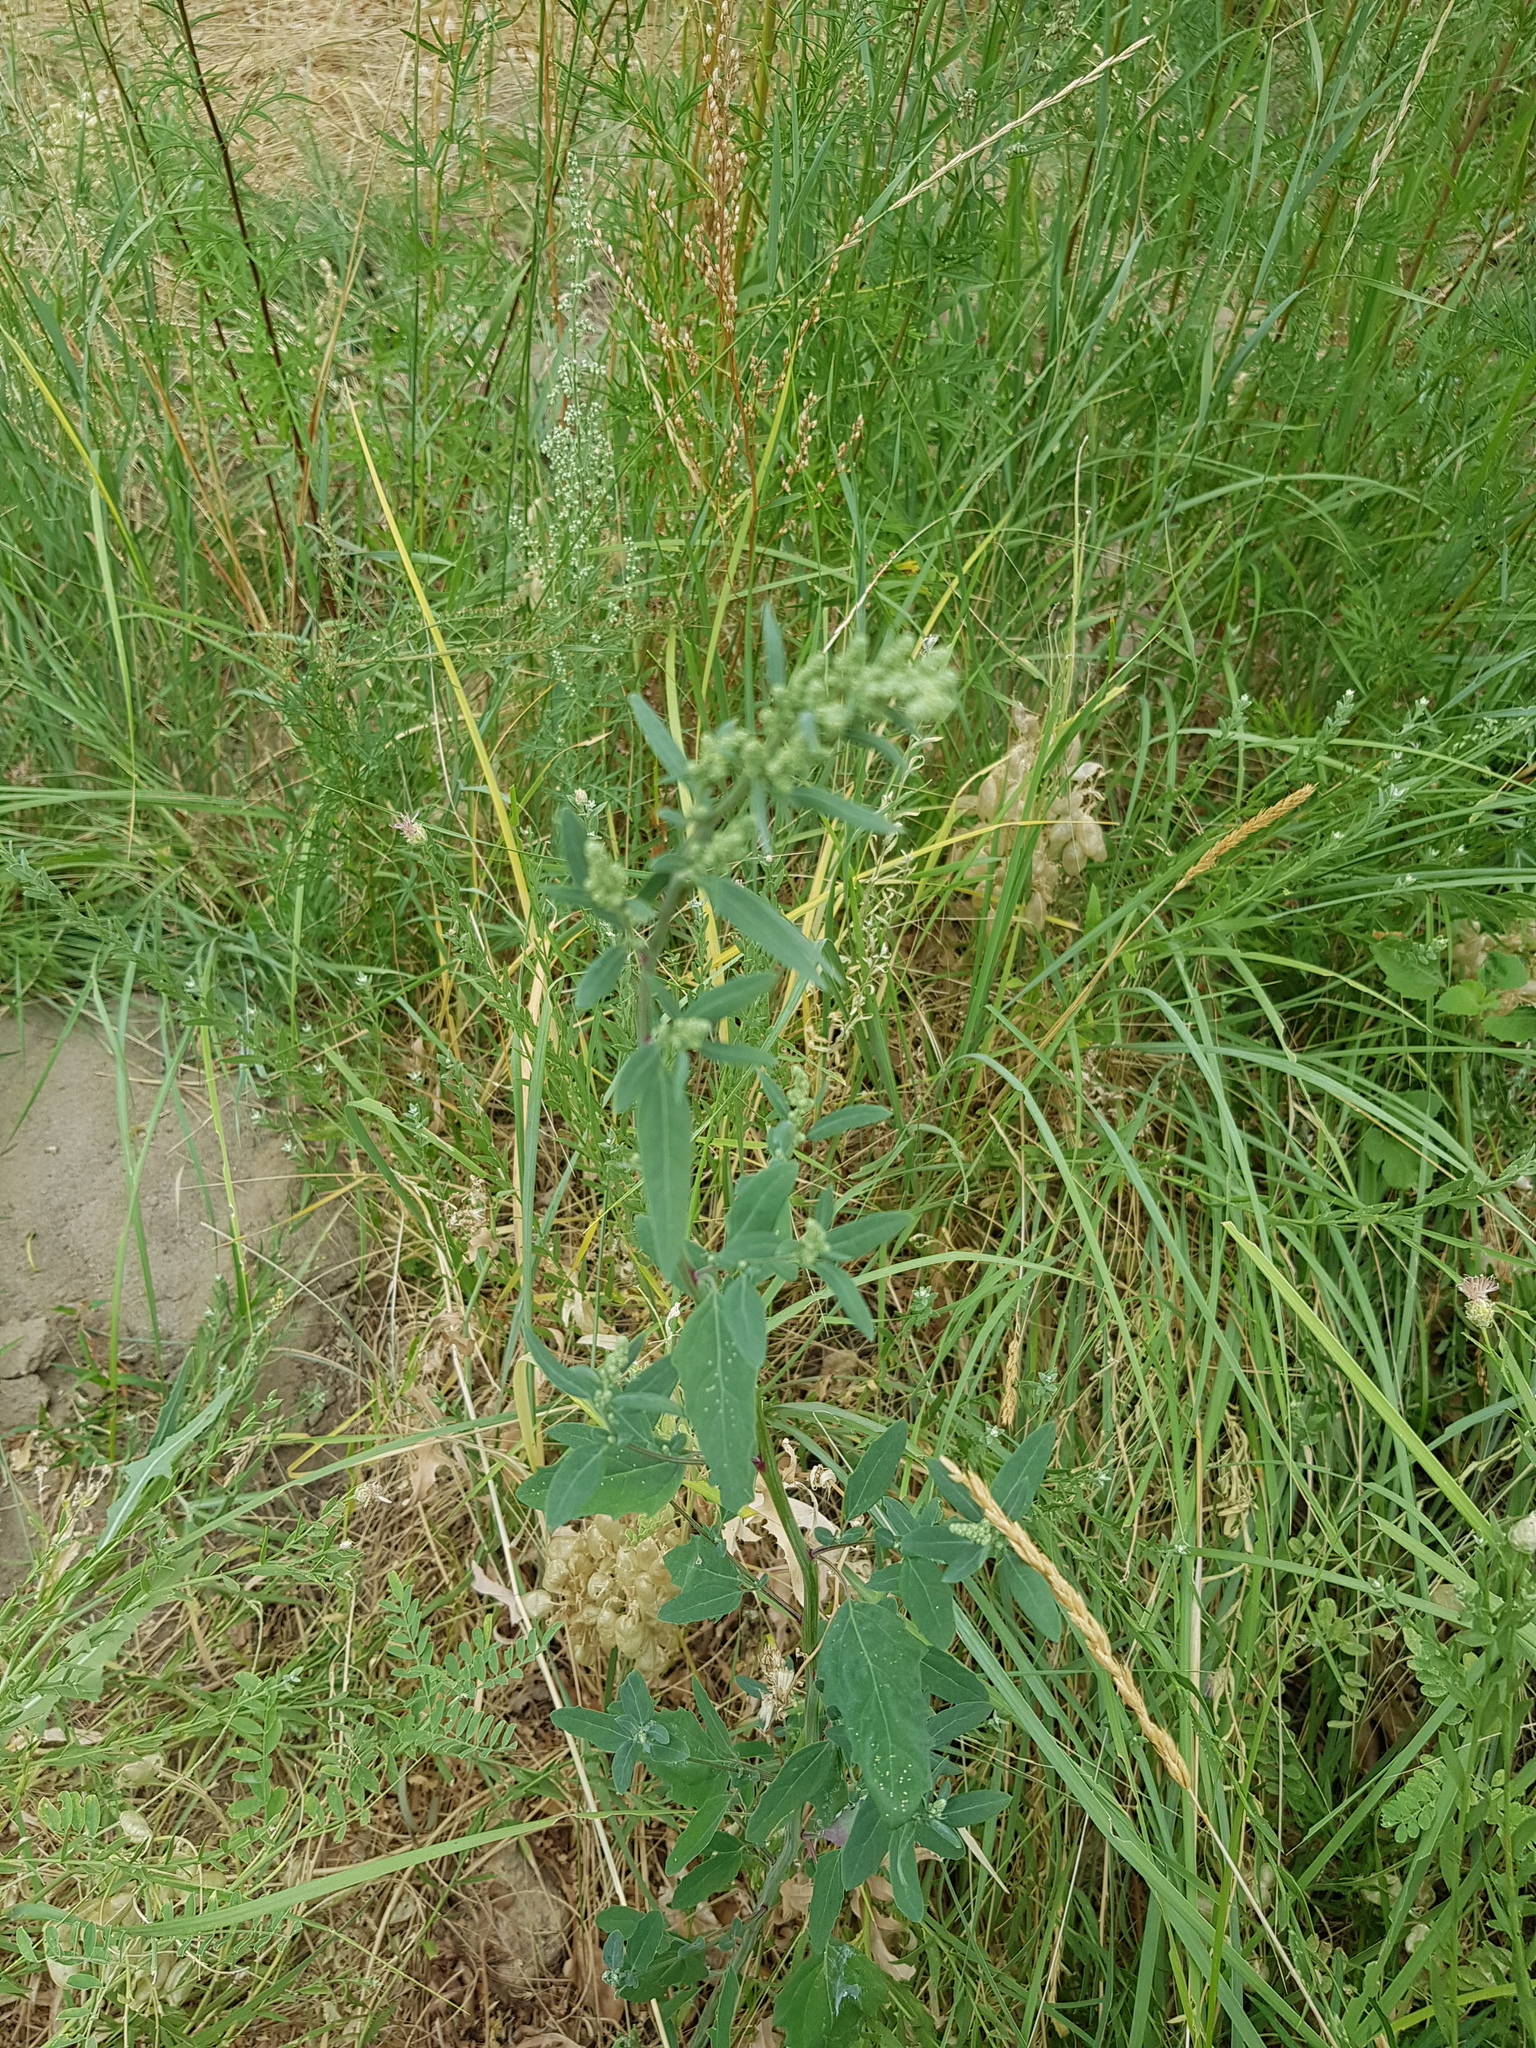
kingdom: Plantae
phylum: Tracheophyta
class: Magnoliopsida
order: Caryophyllales
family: Amaranthaceae
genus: Chenopodium
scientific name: Chenopodium album
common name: Fat-hen
